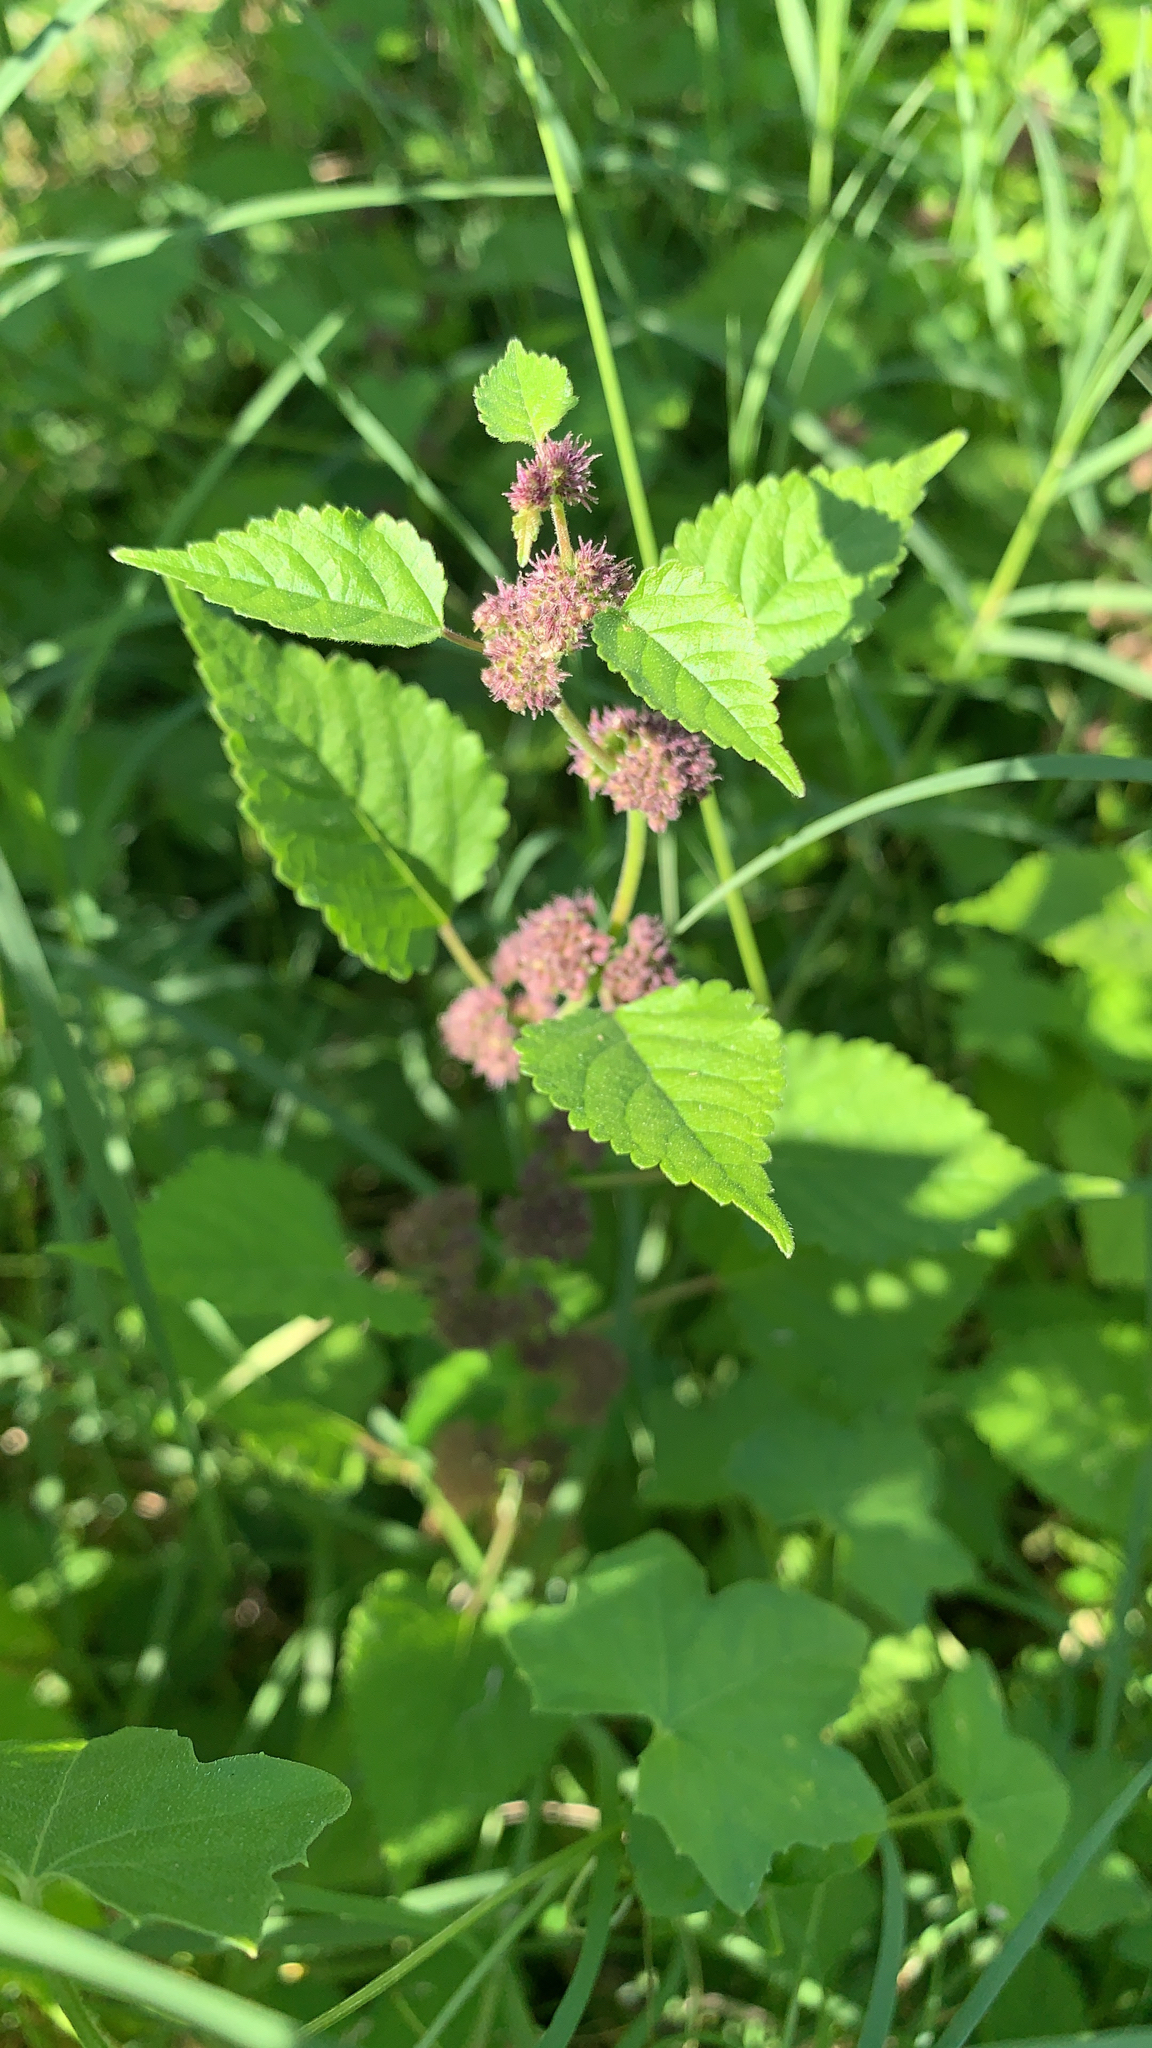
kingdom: Plantae
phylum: Tracheophyta
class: Magnoliopsida
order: Rosales
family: Moraceae
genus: Fatoua
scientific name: Fatoua villosa
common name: Hairy crabweed
